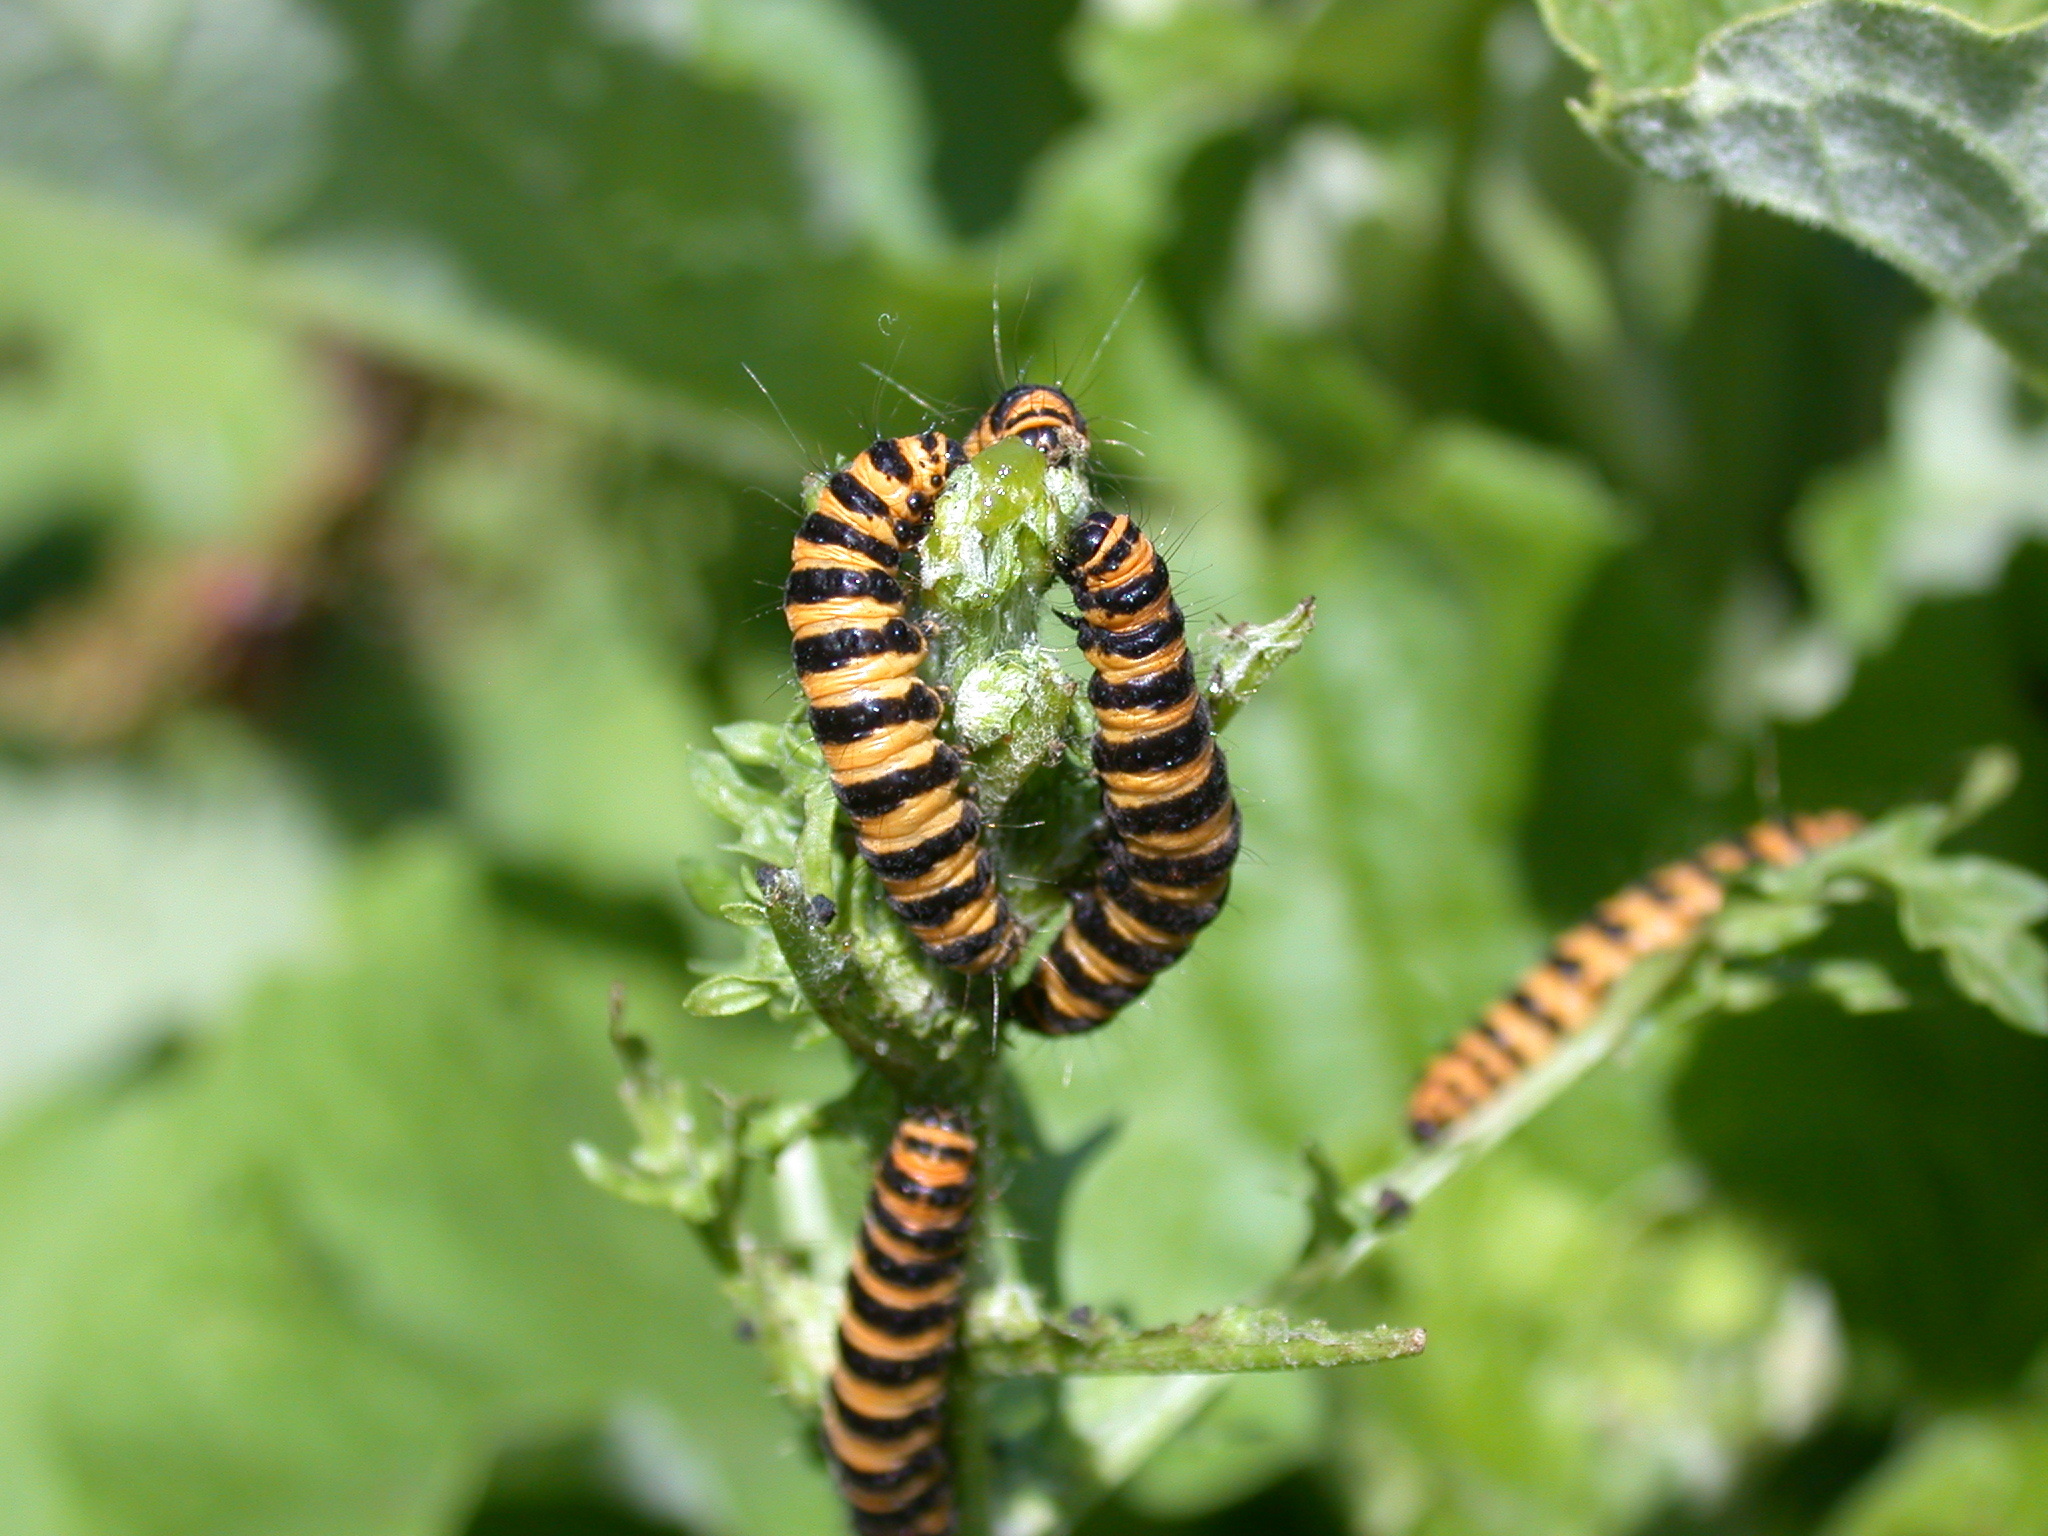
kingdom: Animalia
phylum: Arthropoda
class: Insecta
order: Lepidoptera
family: Erebidae
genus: Tyria
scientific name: Tyria jacobaeae
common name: Cinnabar
